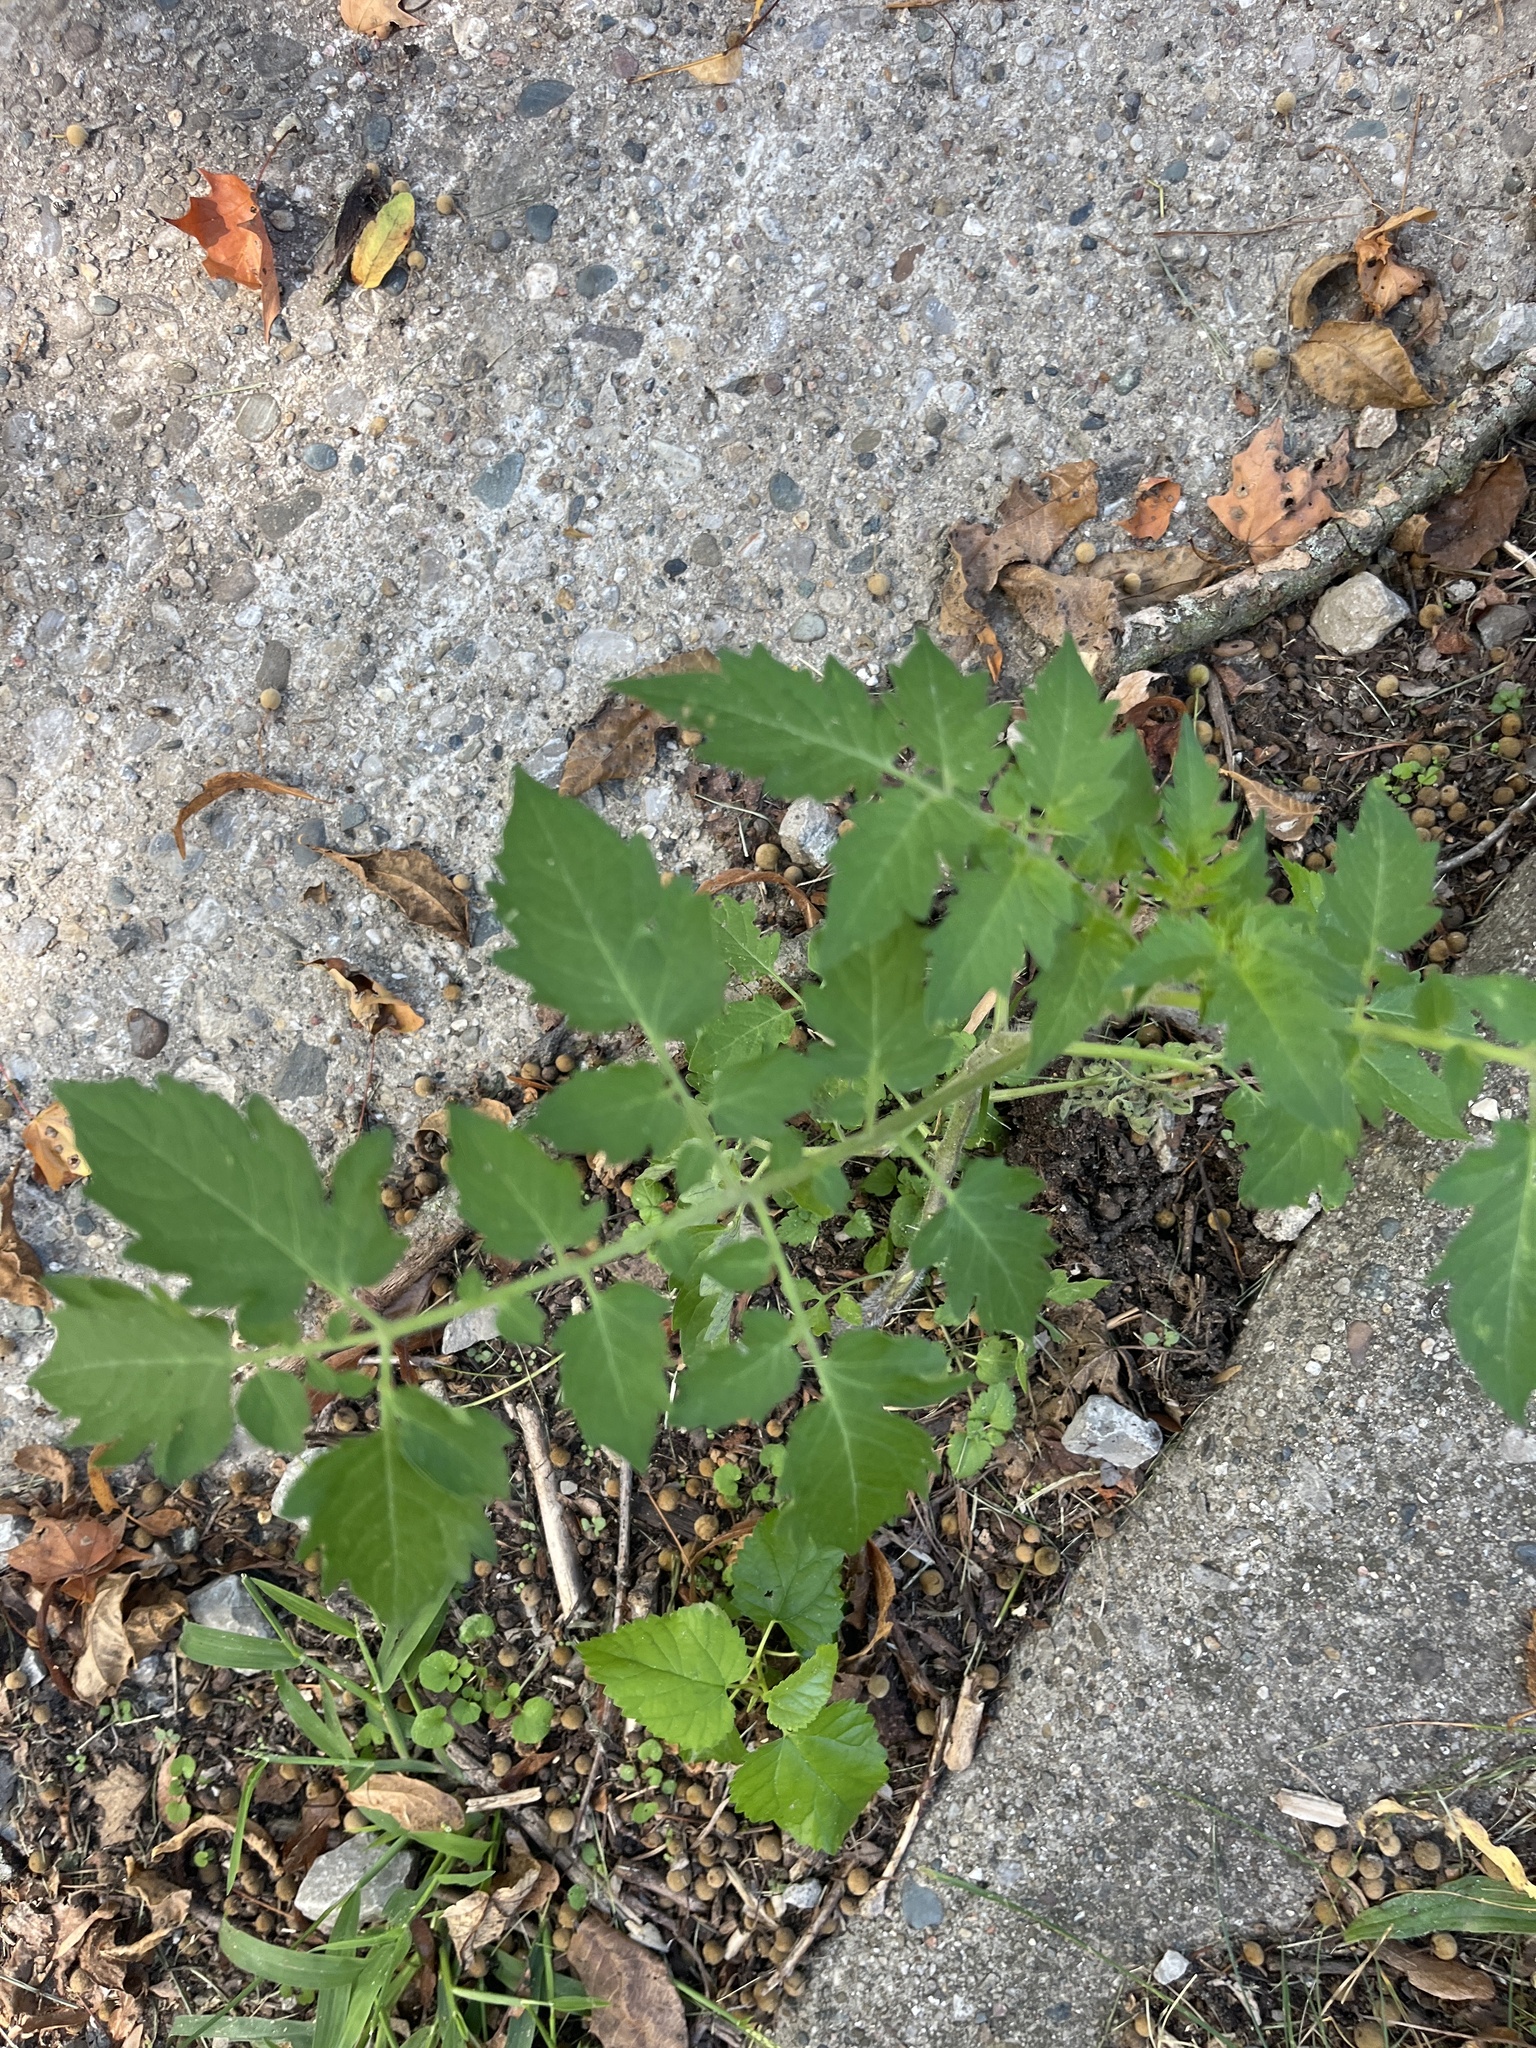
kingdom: Plantae
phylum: Tracheophyta
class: Magnoliopsida
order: Solanales
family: Solanaceae
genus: Solanum
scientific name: Solanum lycopersicum
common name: Garden tomato
